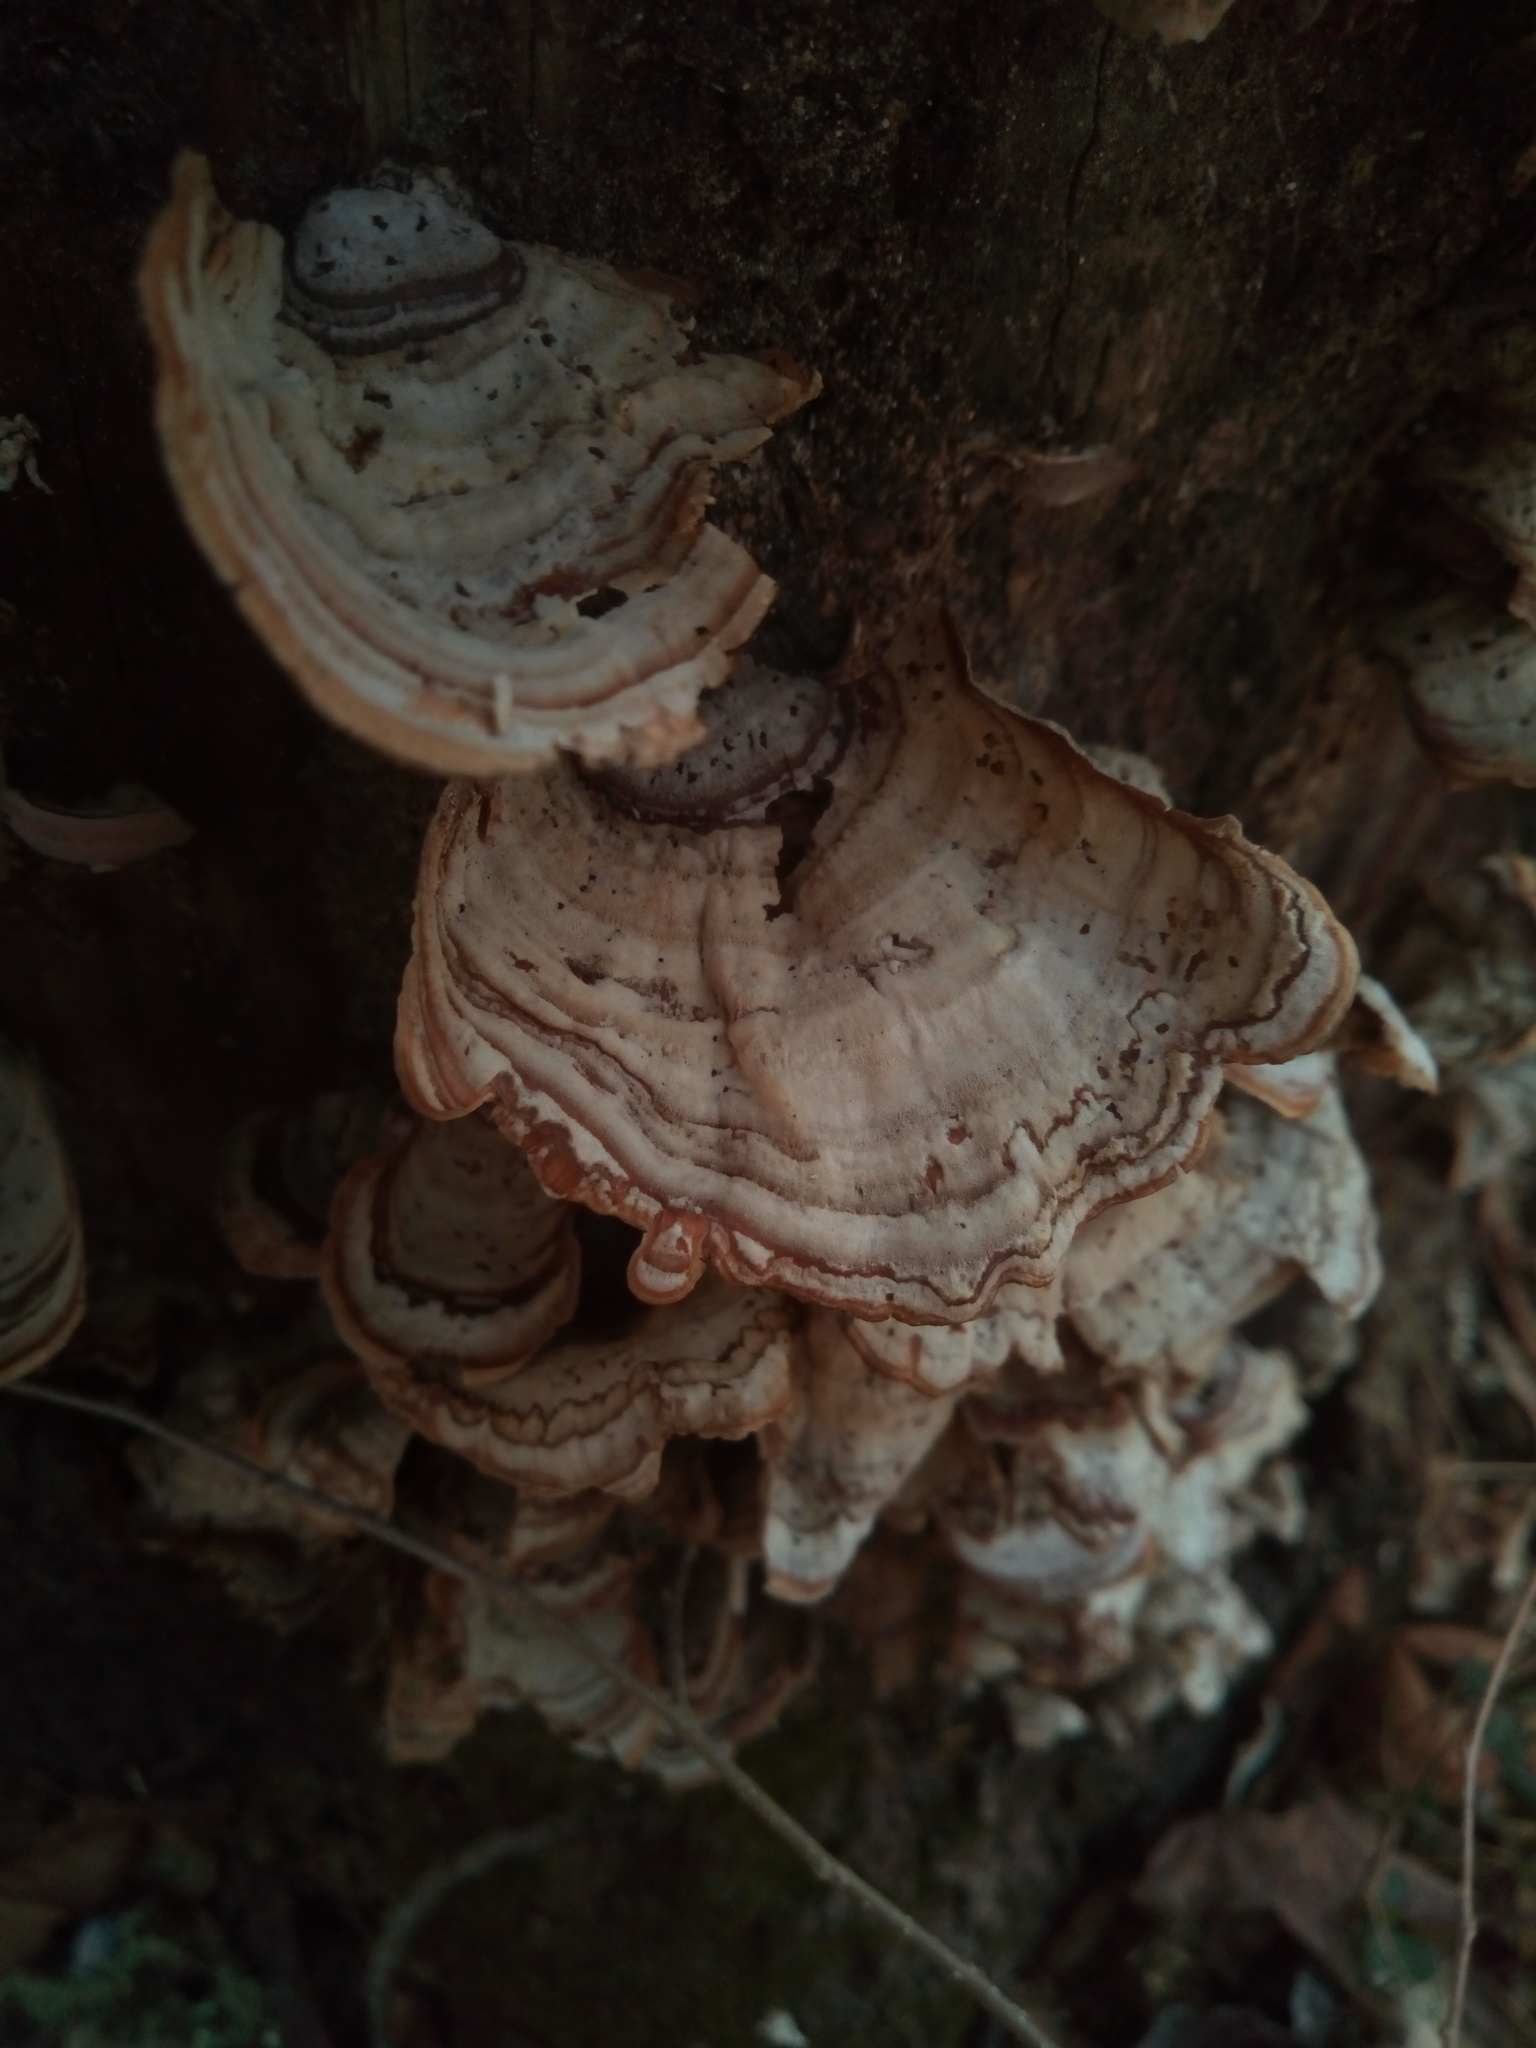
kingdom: Fungi
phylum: Basidiomycota
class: Agaricomycetes
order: Russulales
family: Stereaceae
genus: Stereum
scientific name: Stereum ostrea
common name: False turkeytail
